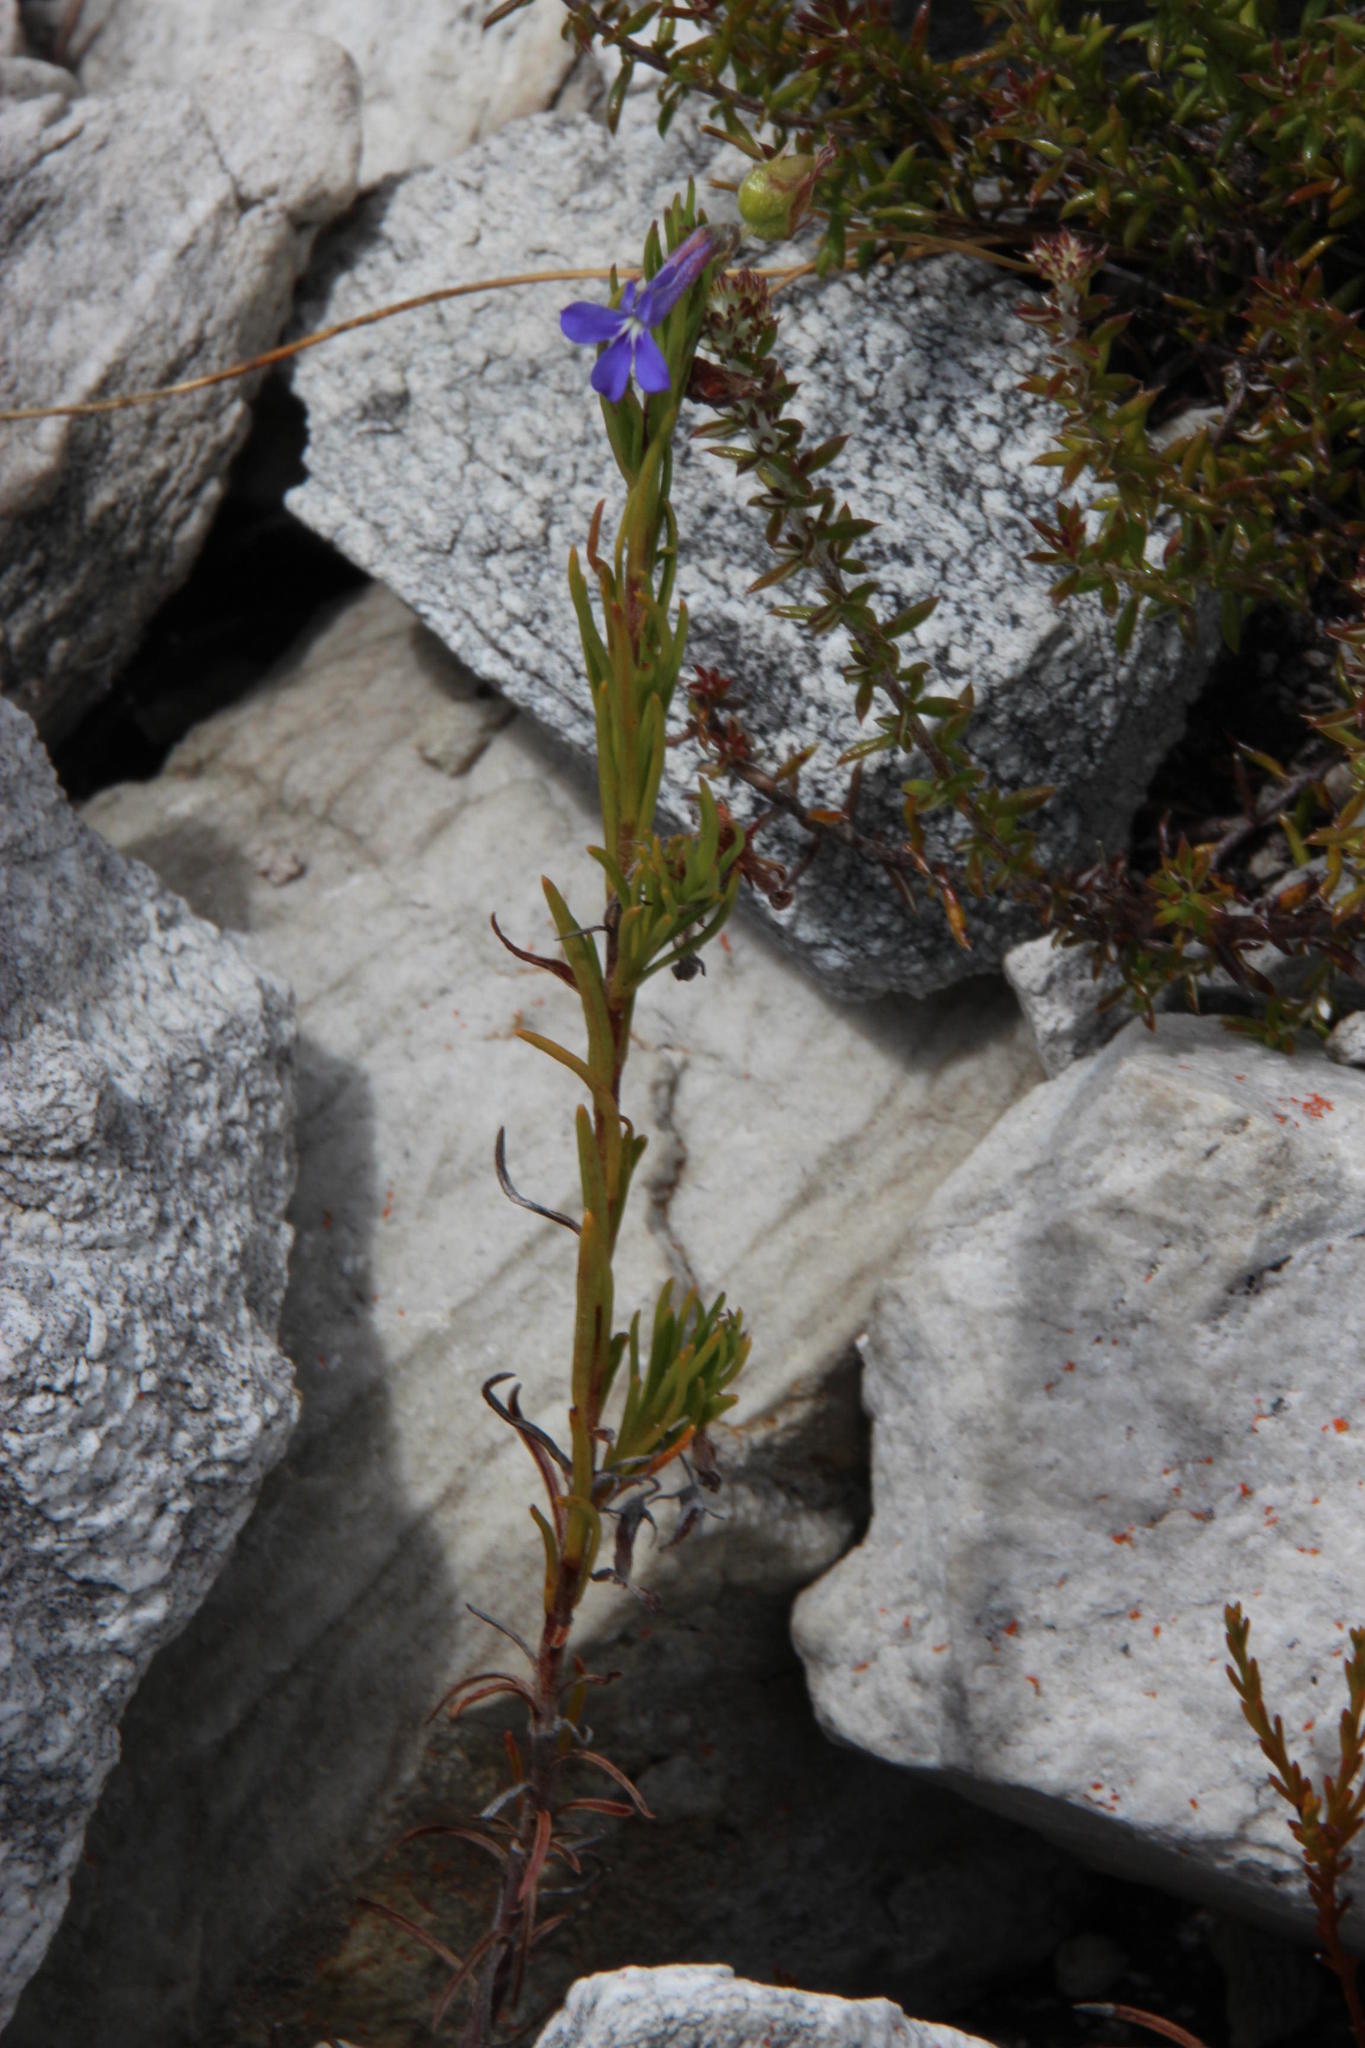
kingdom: Plantae
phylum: Tracheophyta
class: Magnoliopsida
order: Asterales
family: Campanulaceae
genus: Lobelia
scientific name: Lobelia pinifolia
